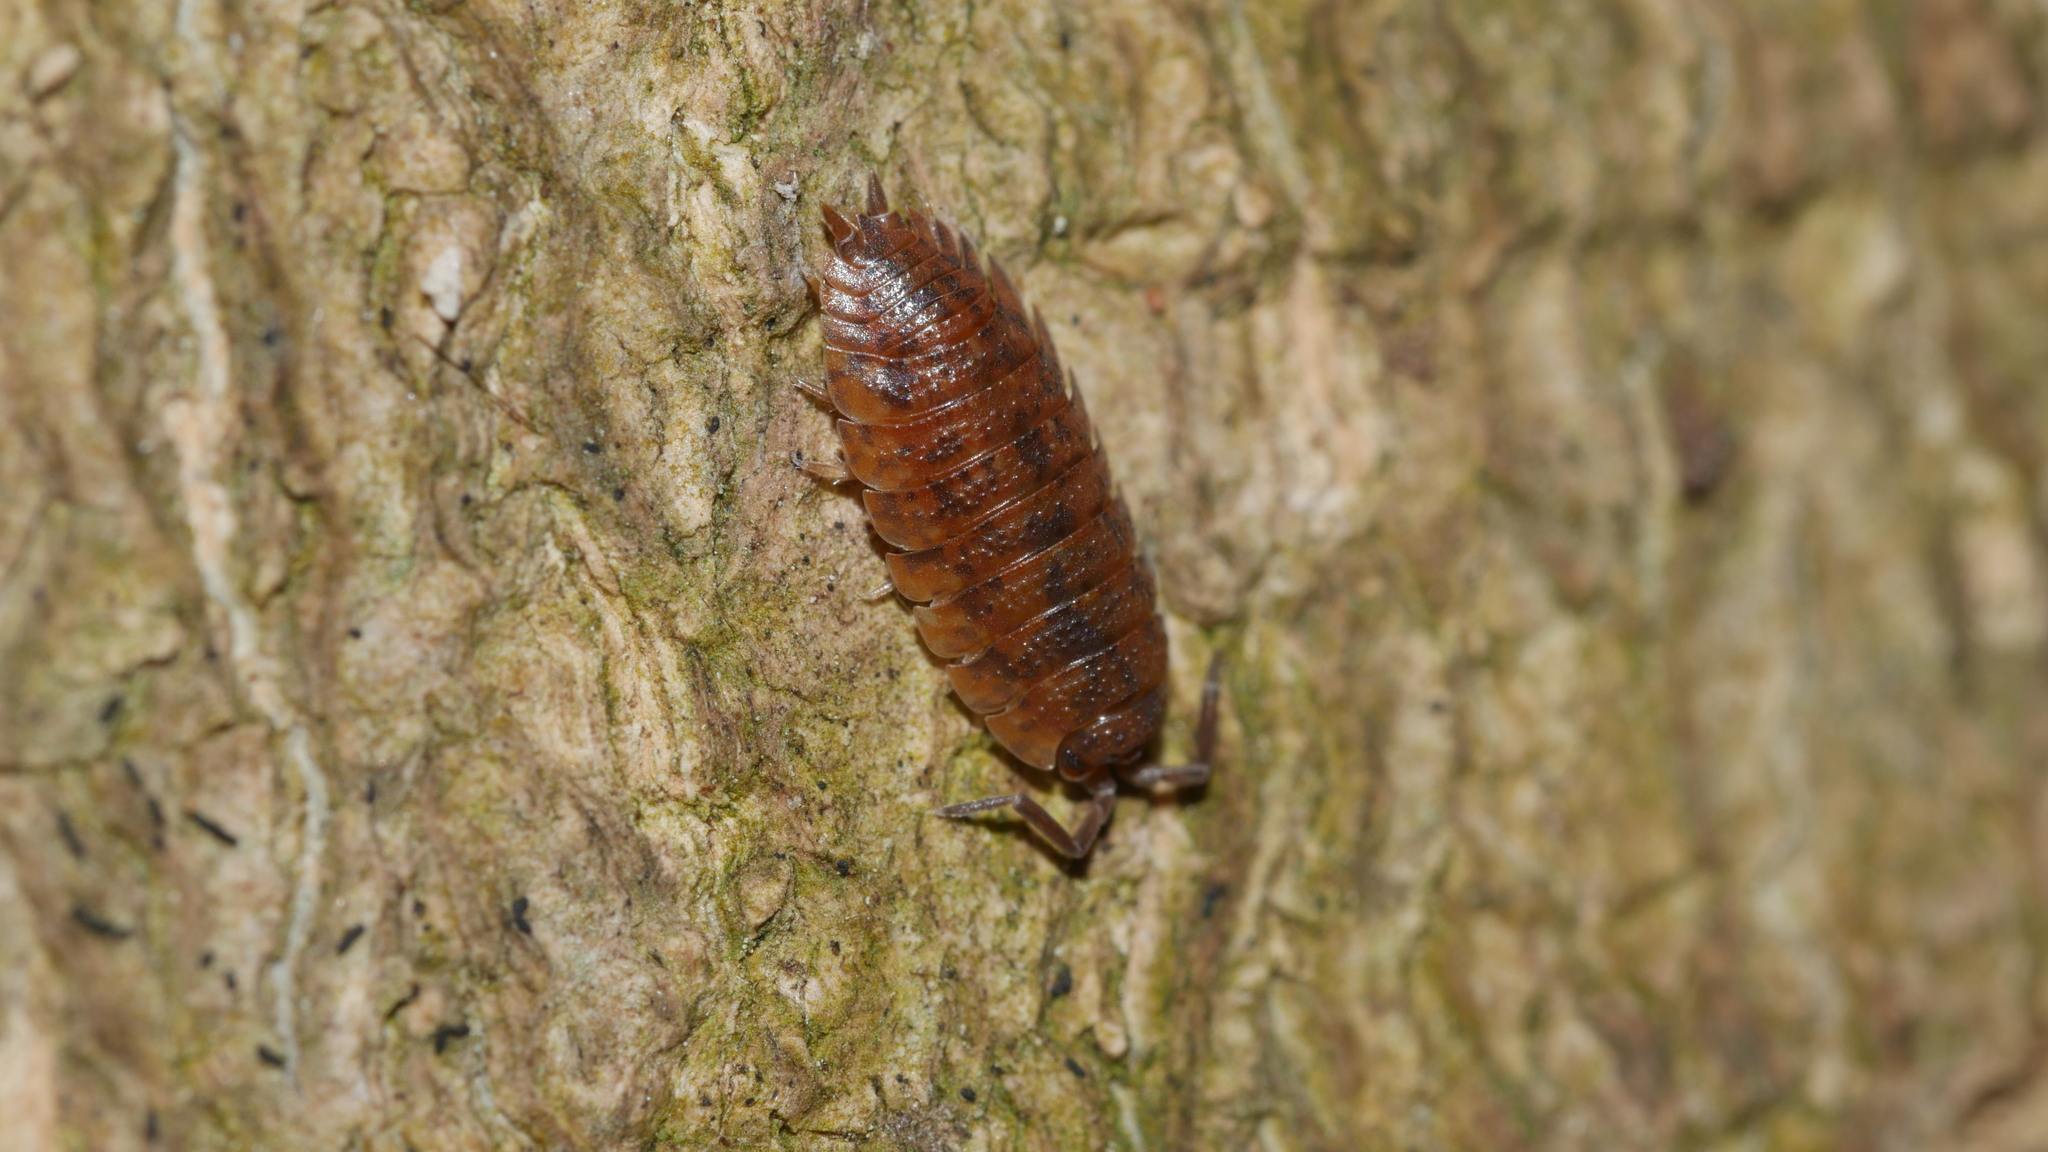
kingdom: Animalia
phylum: Arthropoda
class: Malacostraca
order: Isopoda
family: Porcellionidae
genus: Porcellio
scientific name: Porcellio scaber
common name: Common rough woodlouse
